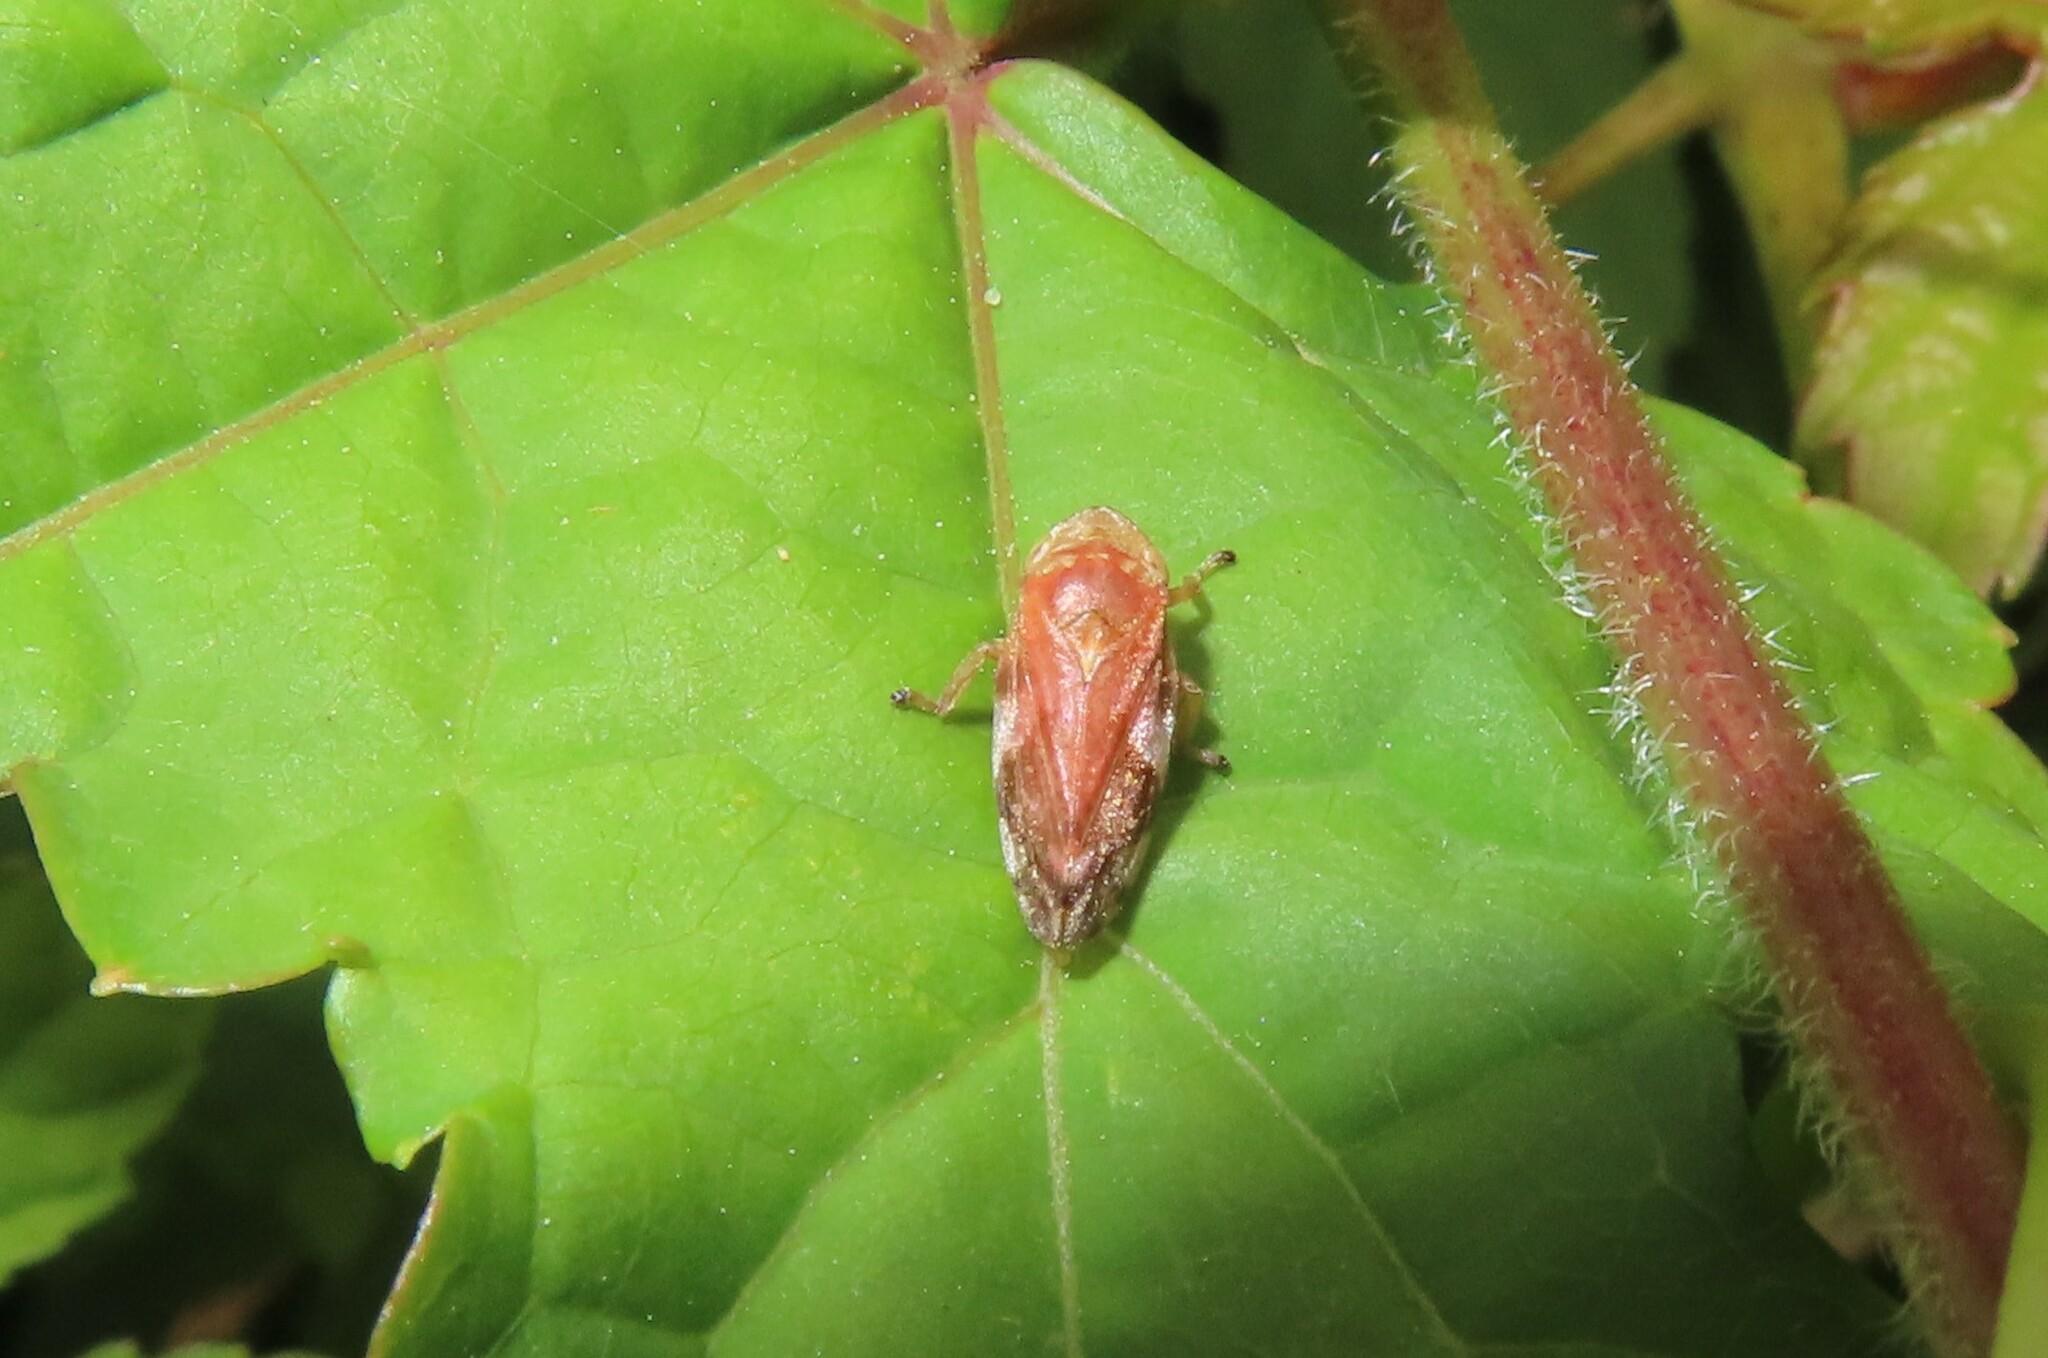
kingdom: Animalia
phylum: Arthropoda
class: Insecta
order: Hemiptera
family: Aphrophoridae
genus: Philaenus
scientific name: Philaenus spumarius
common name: Meadow spittlebug
